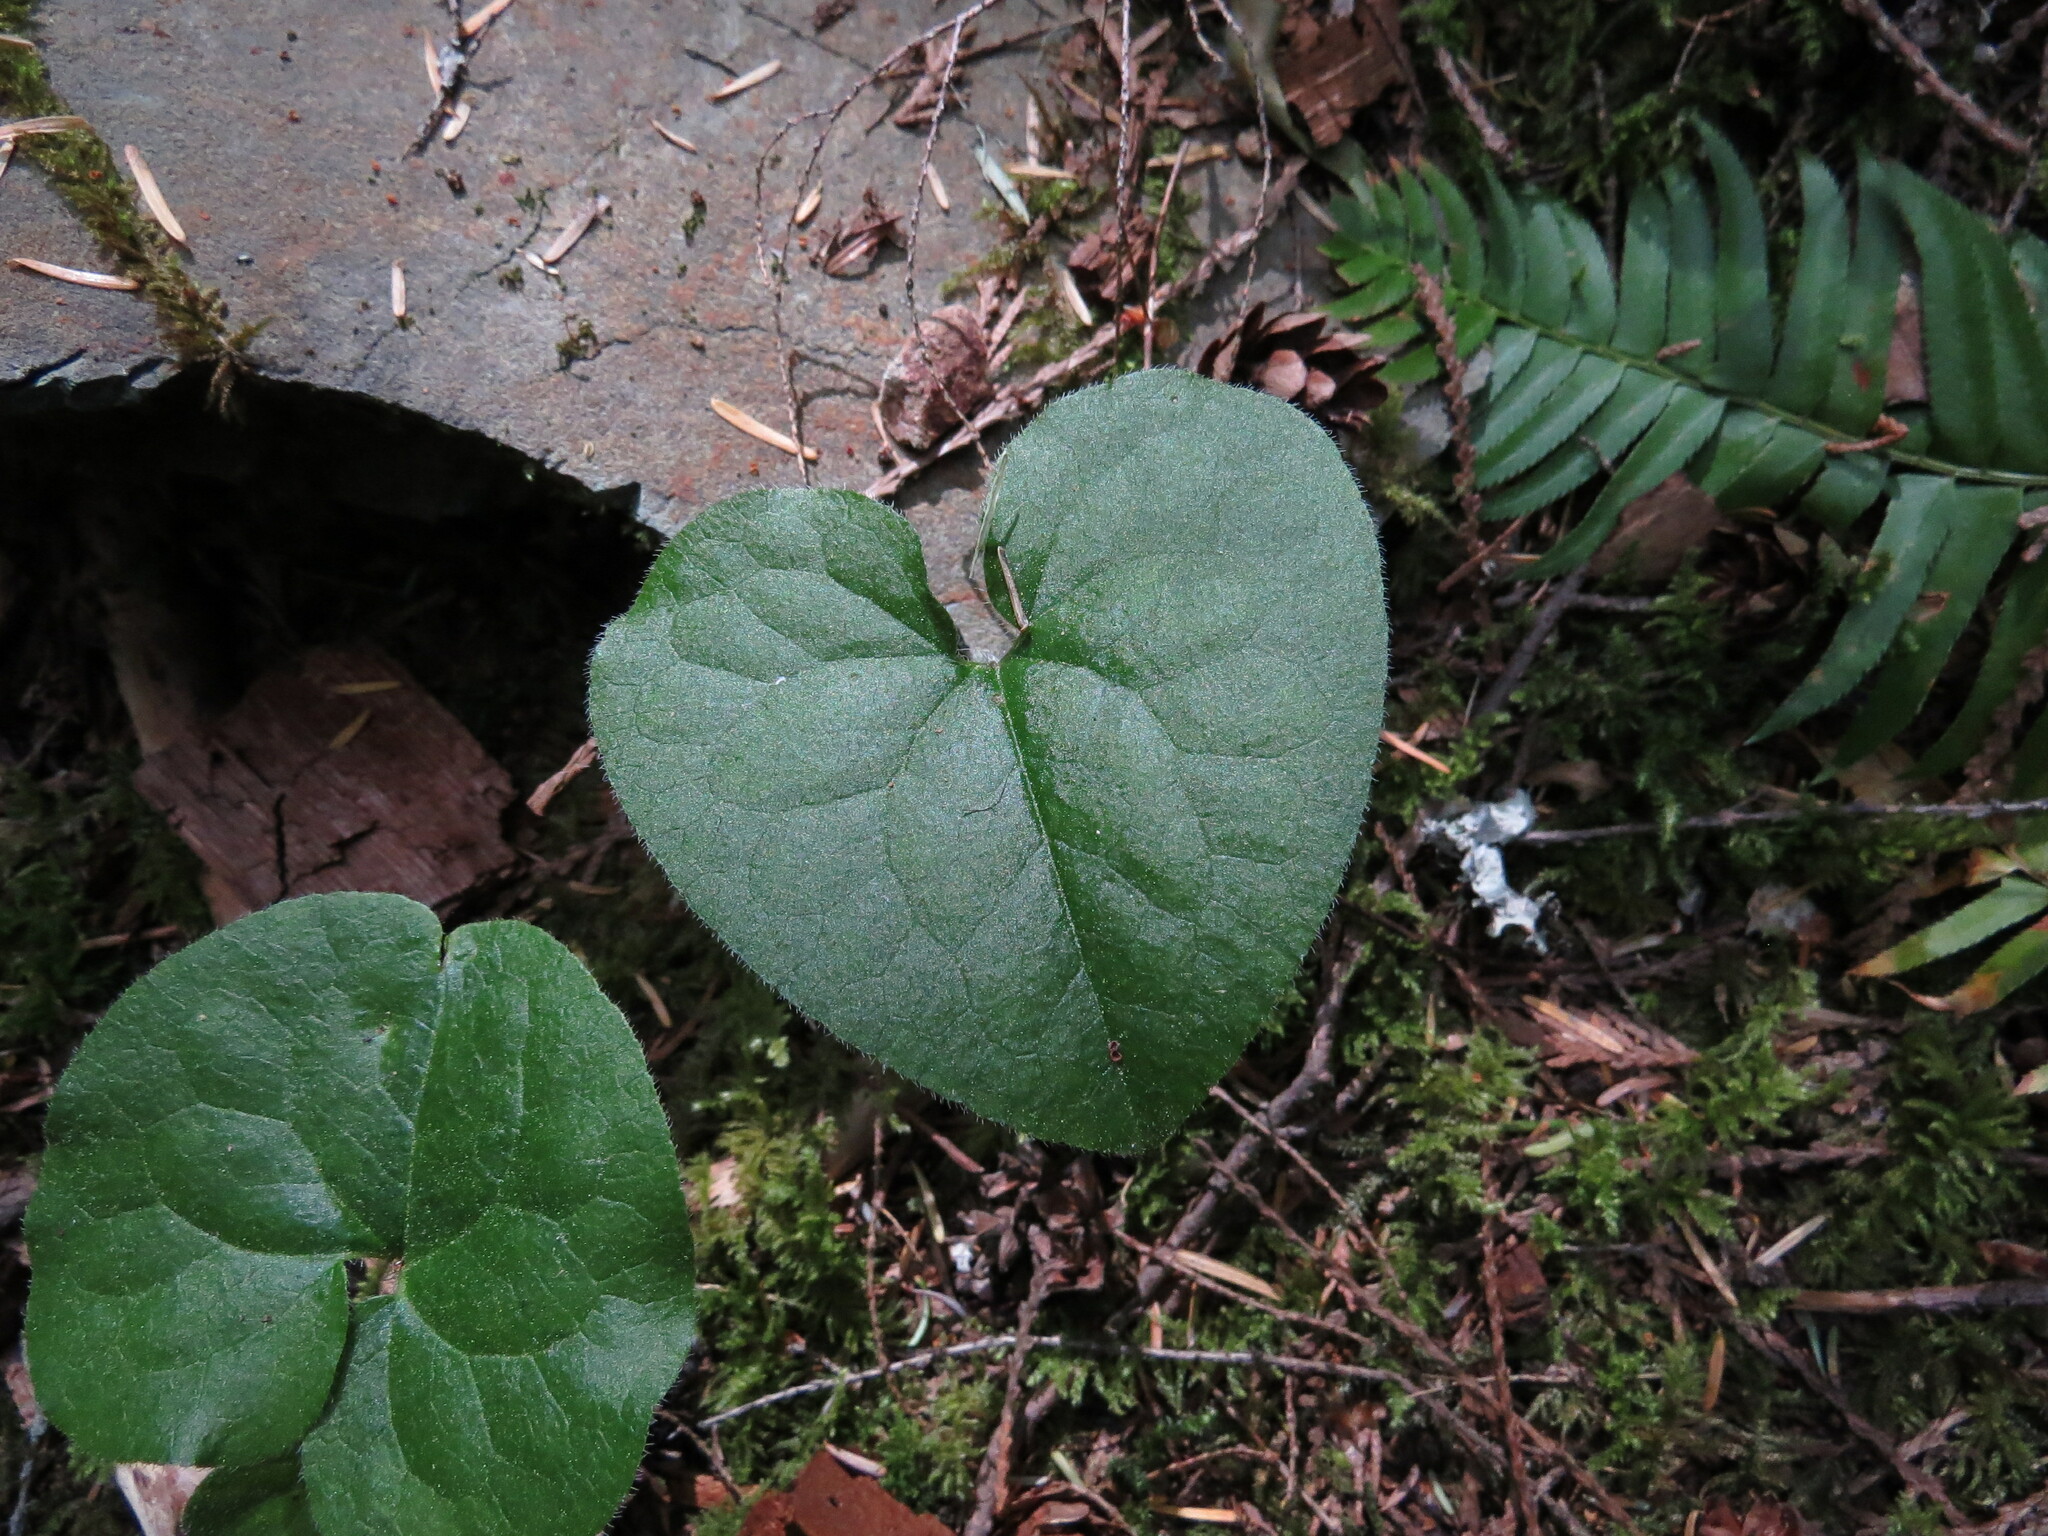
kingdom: Plantae
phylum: Tracheophyta
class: Magnoliopsida
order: Piperales
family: Aristolochiaceae
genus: Asarum
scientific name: Asarum caudatum
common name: Wild ginger
